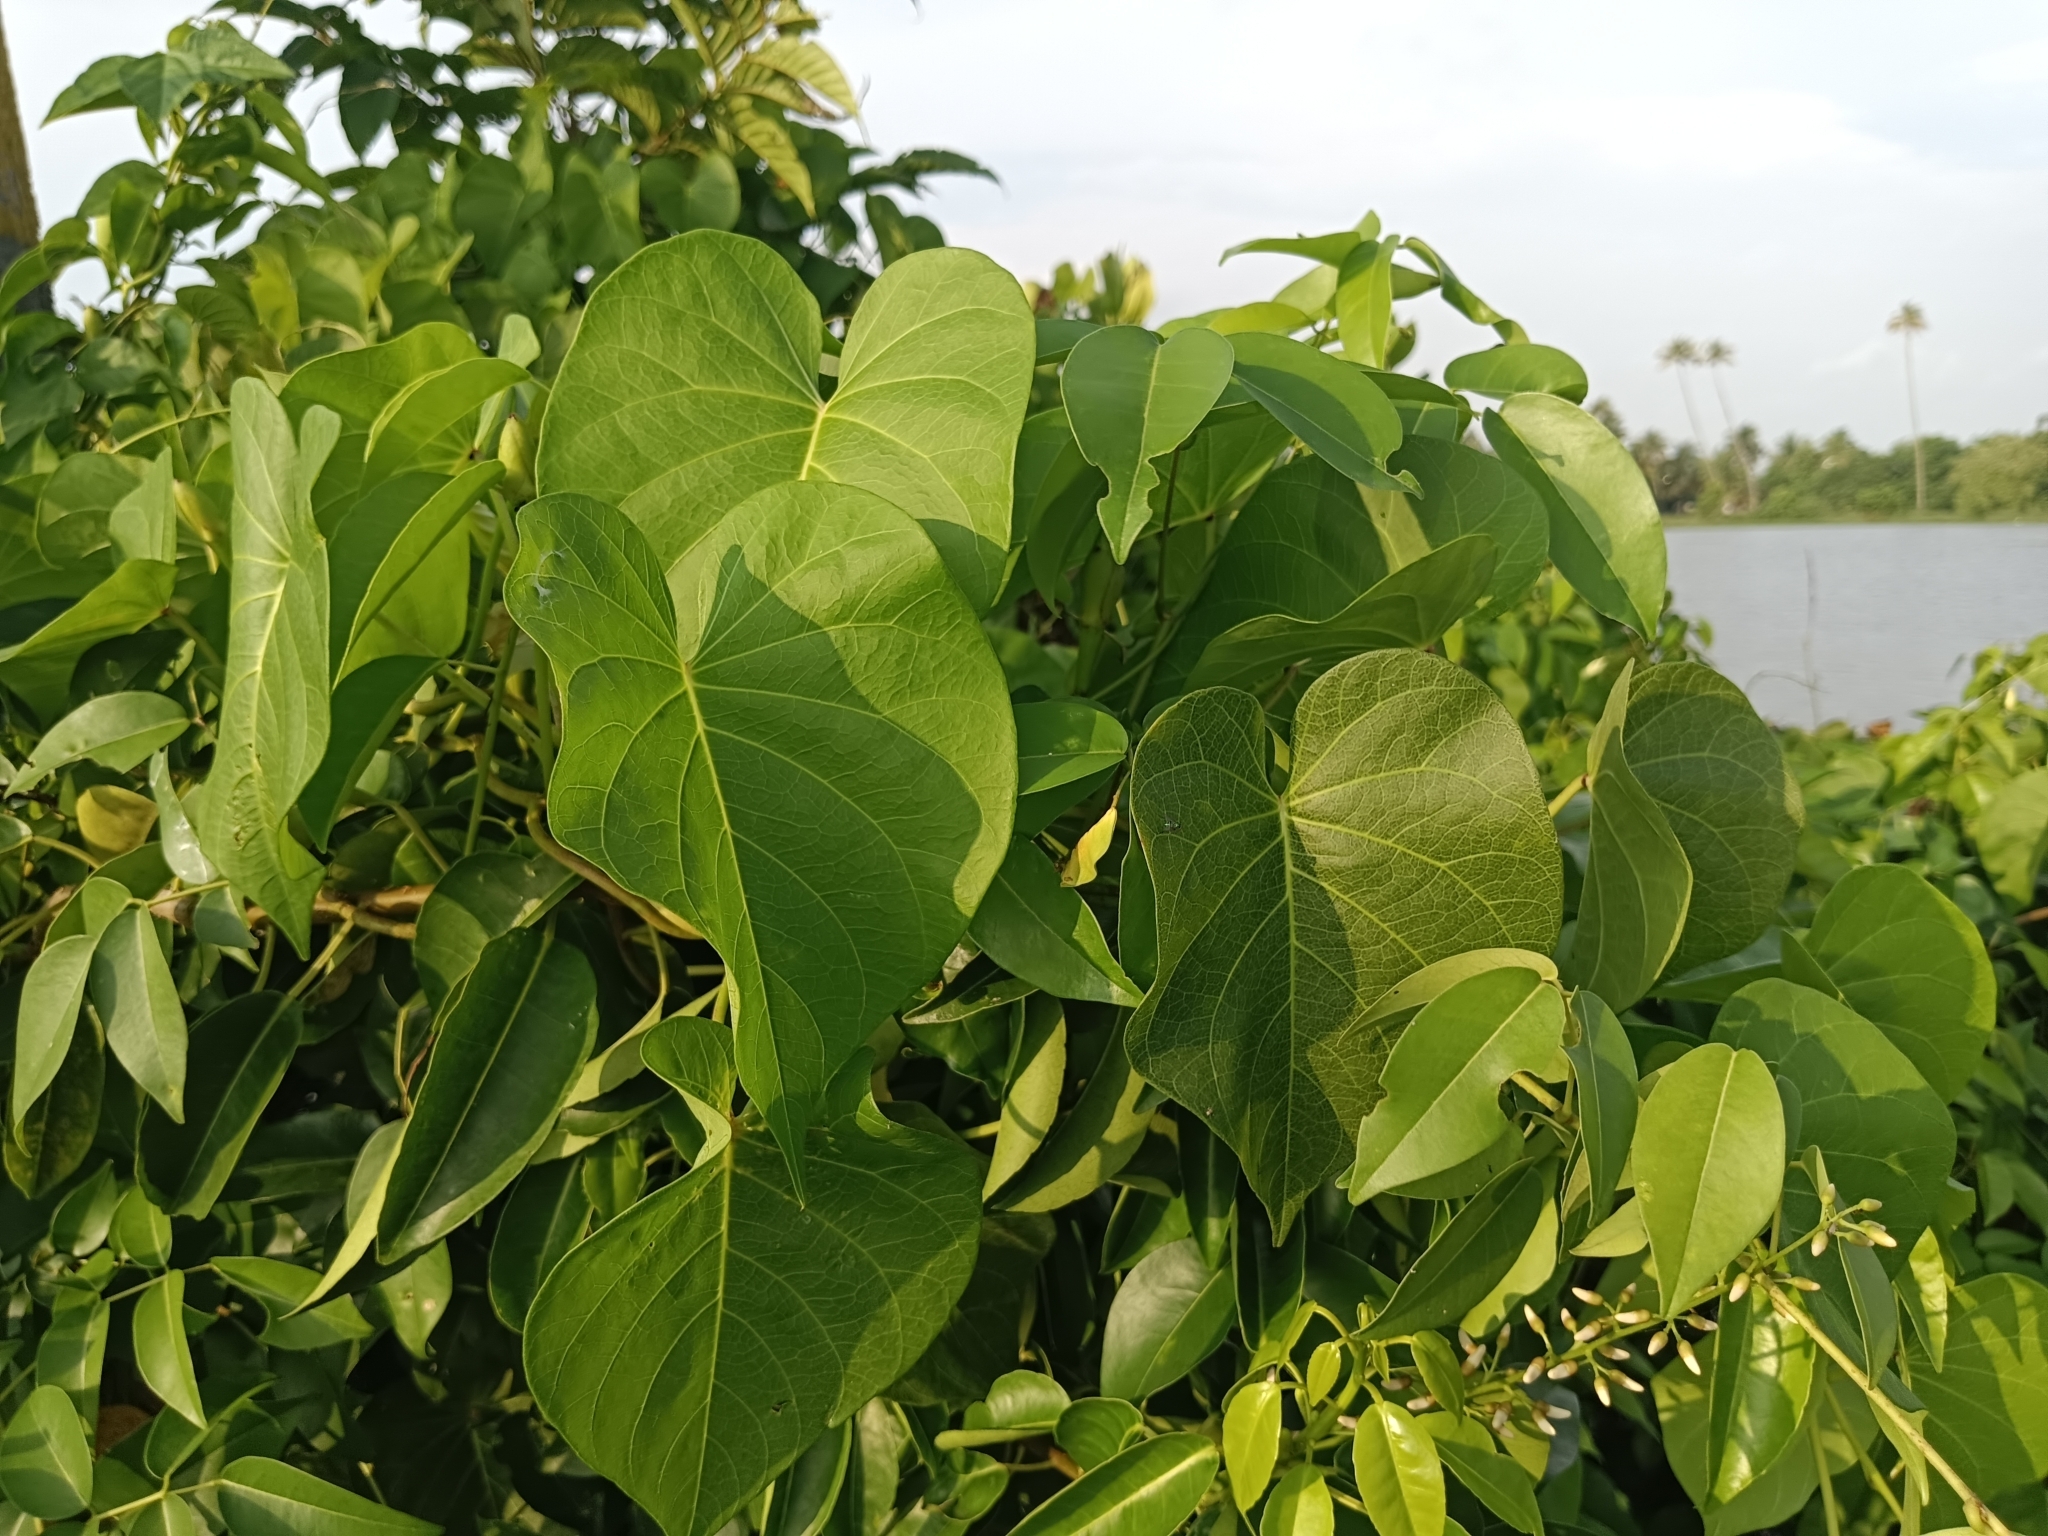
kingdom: Plantae
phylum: Tracheophyta
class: Magnoliopsida
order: Solanales
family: Convolvulaceae
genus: Ipomoea
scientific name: Ipomoea violacea
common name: Beach moonflower
